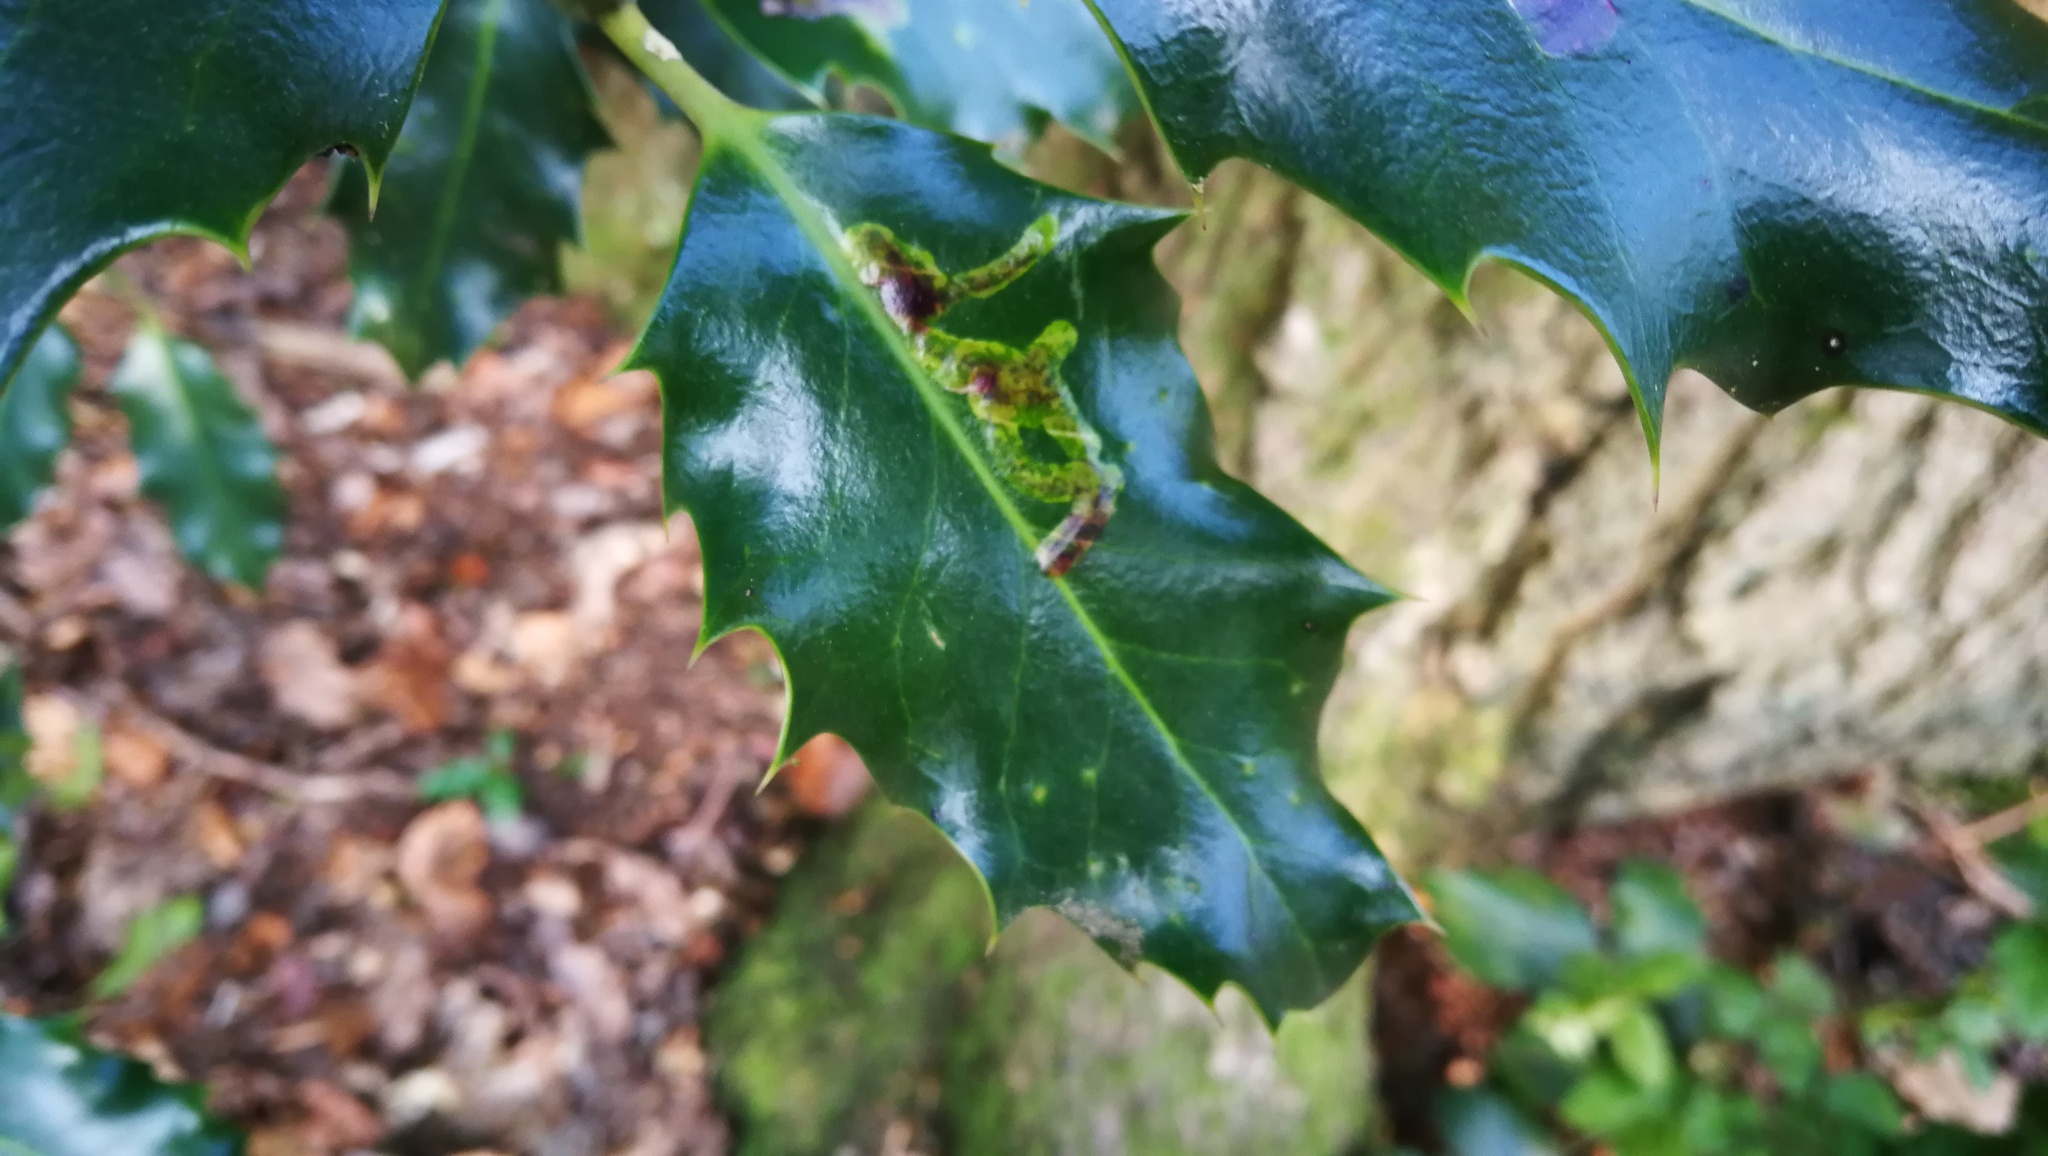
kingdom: Animalia
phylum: Arthropoda
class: Insecta
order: Diptera
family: Agromyzidae
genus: Phytomyza
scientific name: Phytomyza ilicis
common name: Holly leafminer
